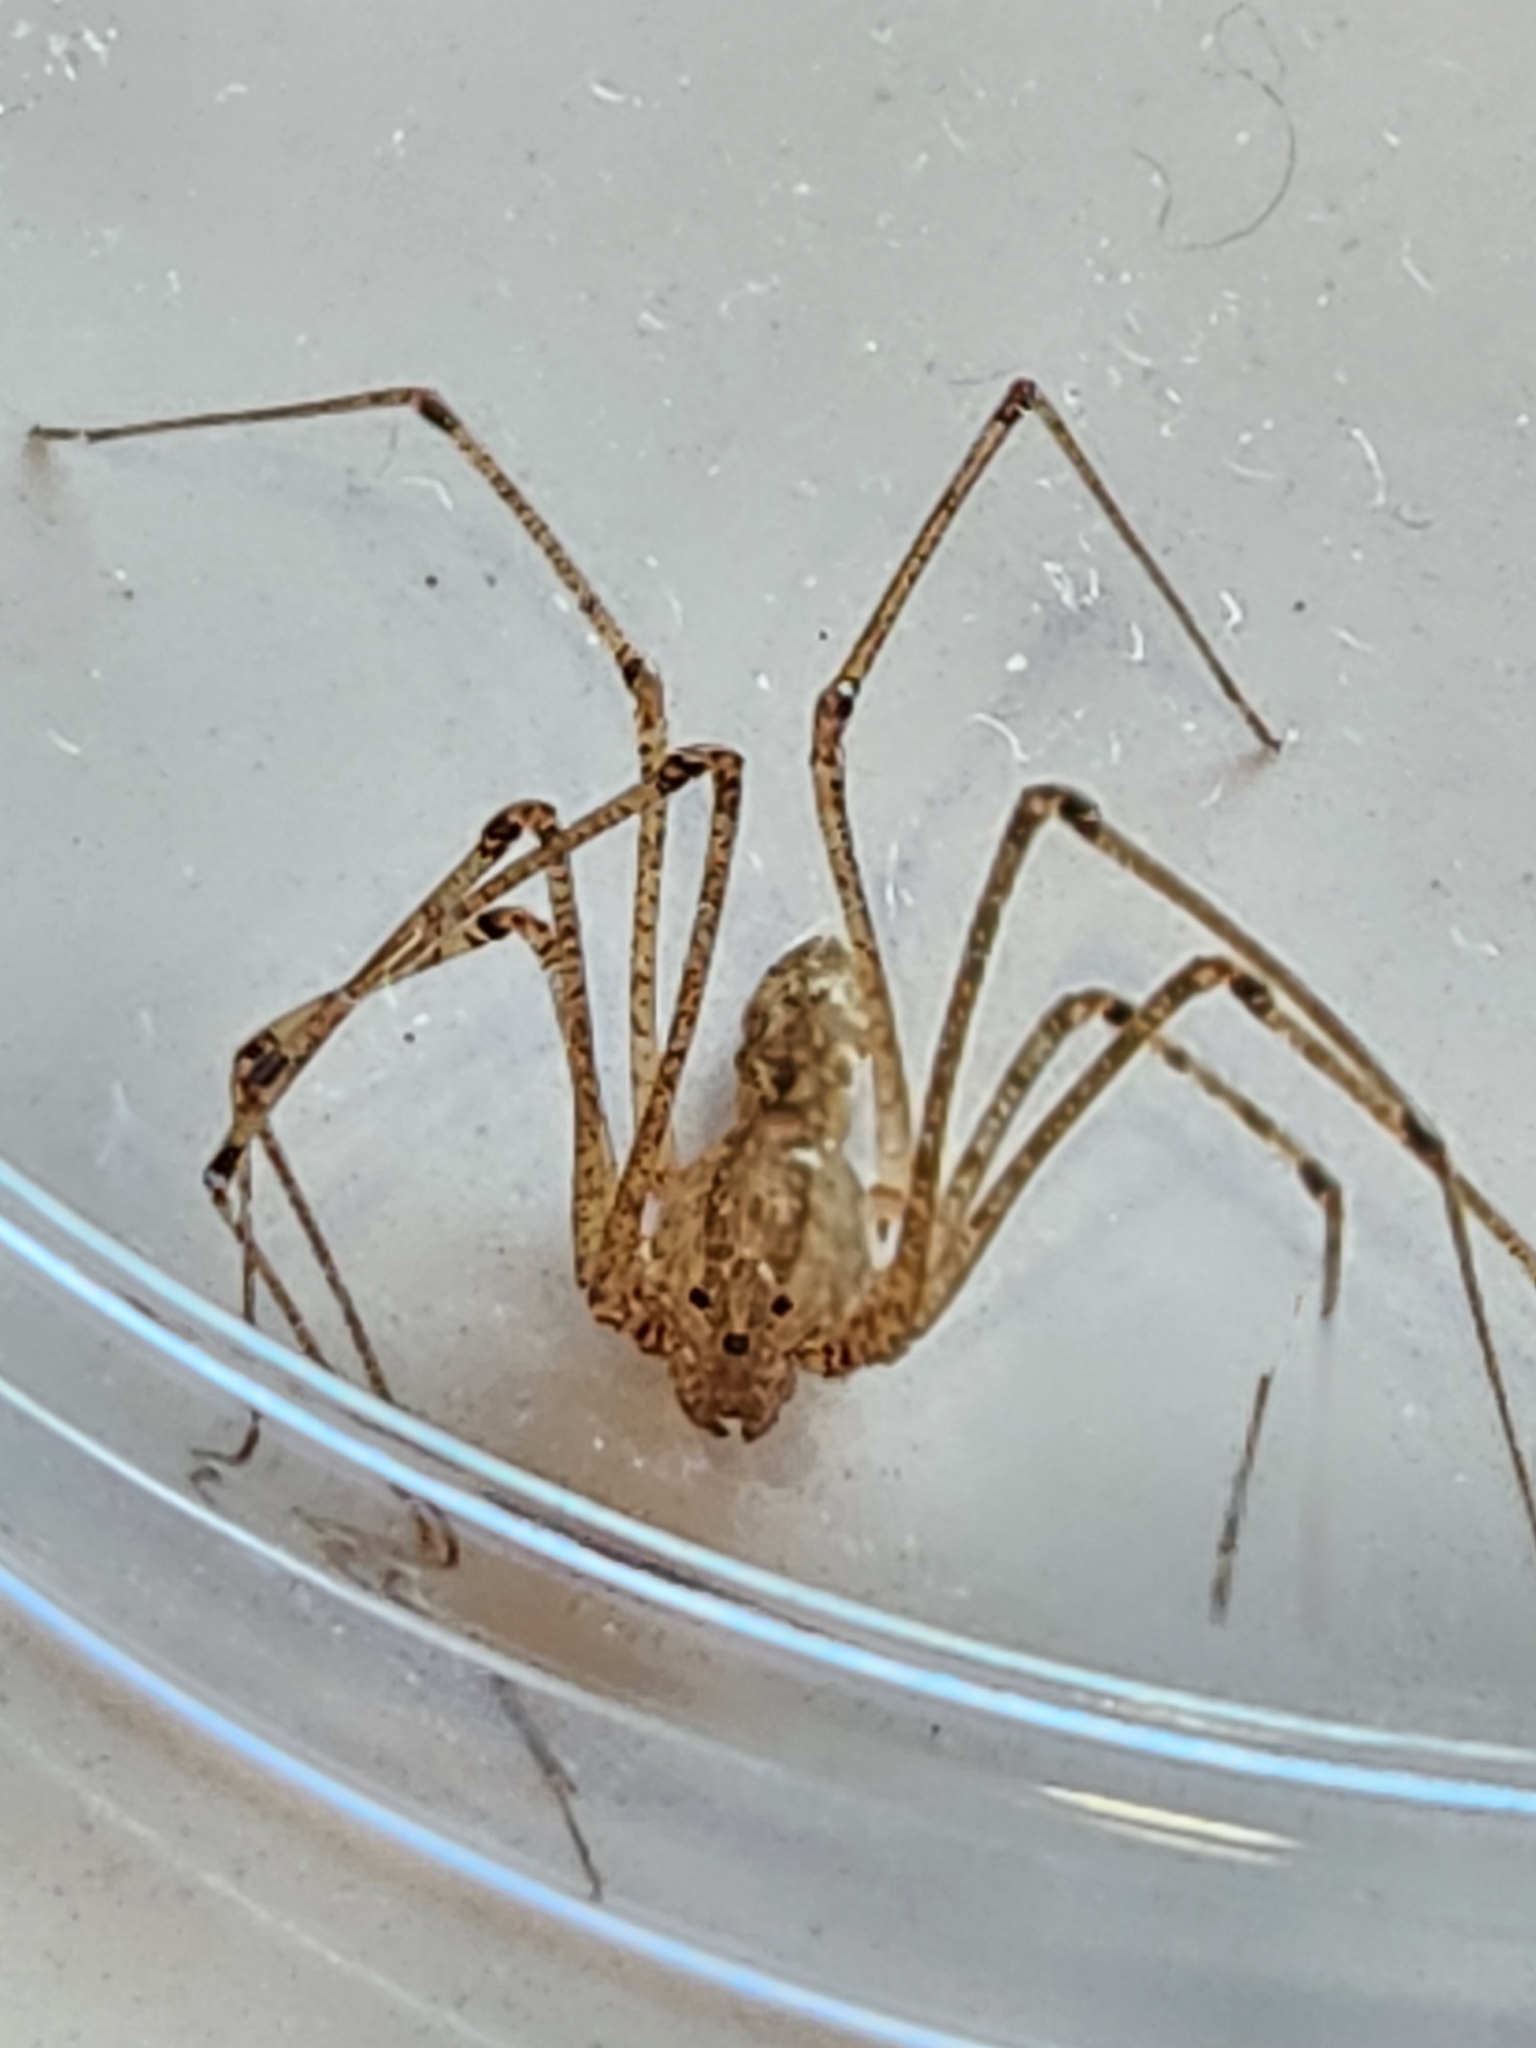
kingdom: Animalia
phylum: Arthropoda
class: Arachnida
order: Araneae
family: Scytodidae
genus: Scytodes
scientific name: Scytodes atlacoya
